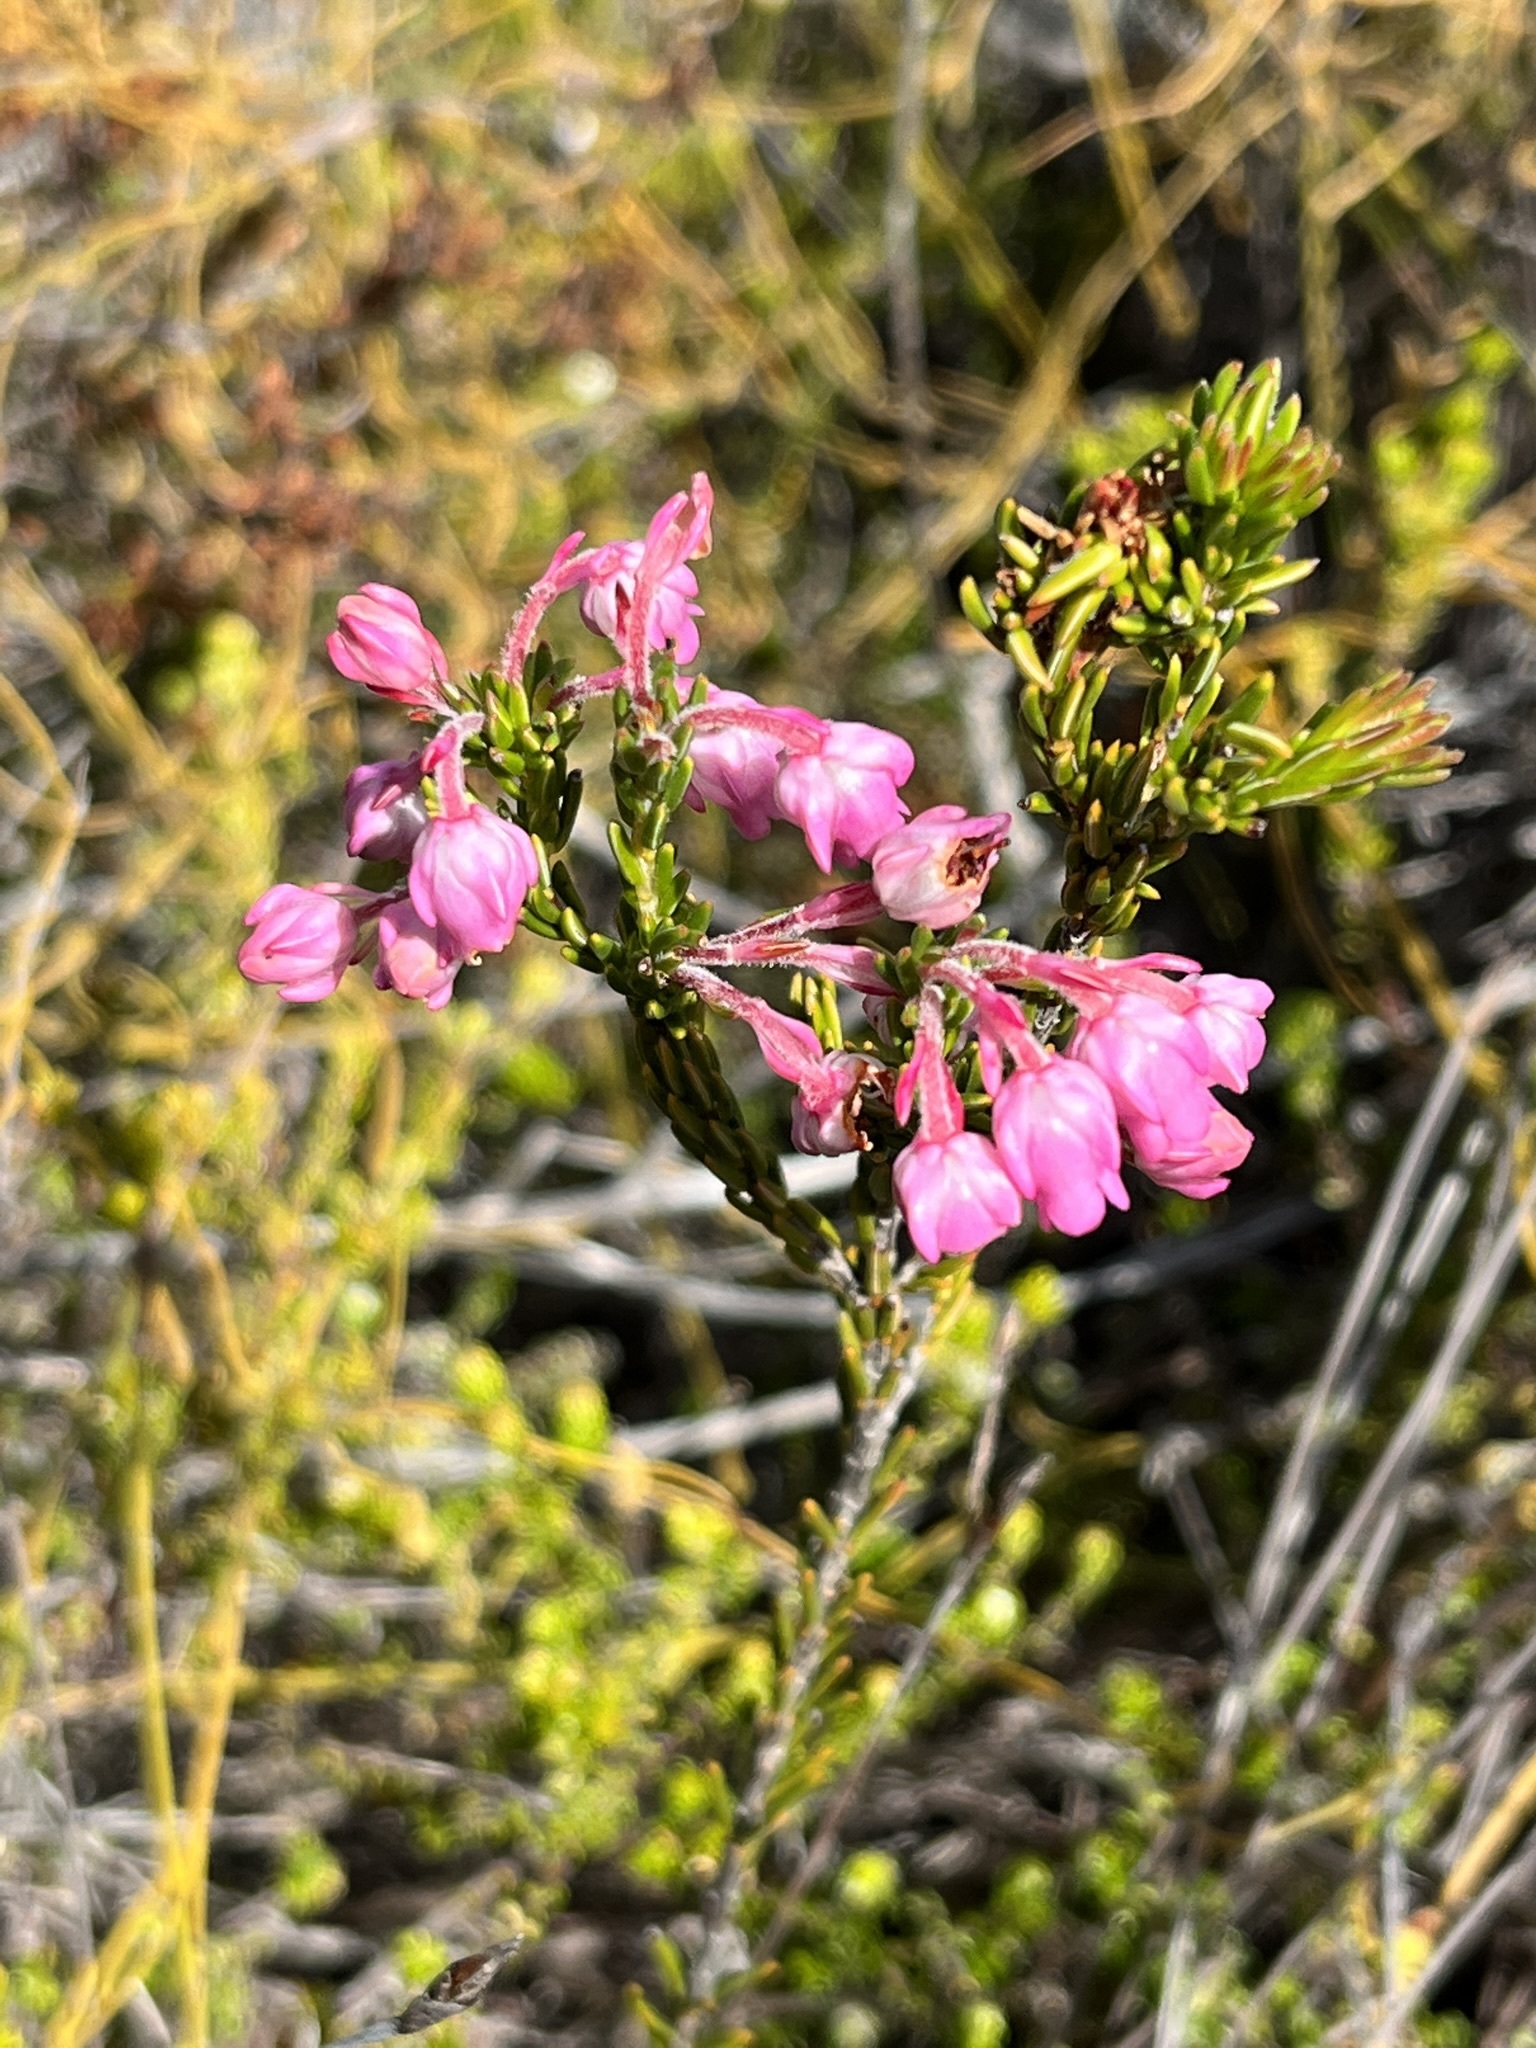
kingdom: Plantae
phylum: Tracheophyta
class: Magnoliopsida
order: Ericales
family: Ericaceae
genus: Erica
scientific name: Erica propinqua
